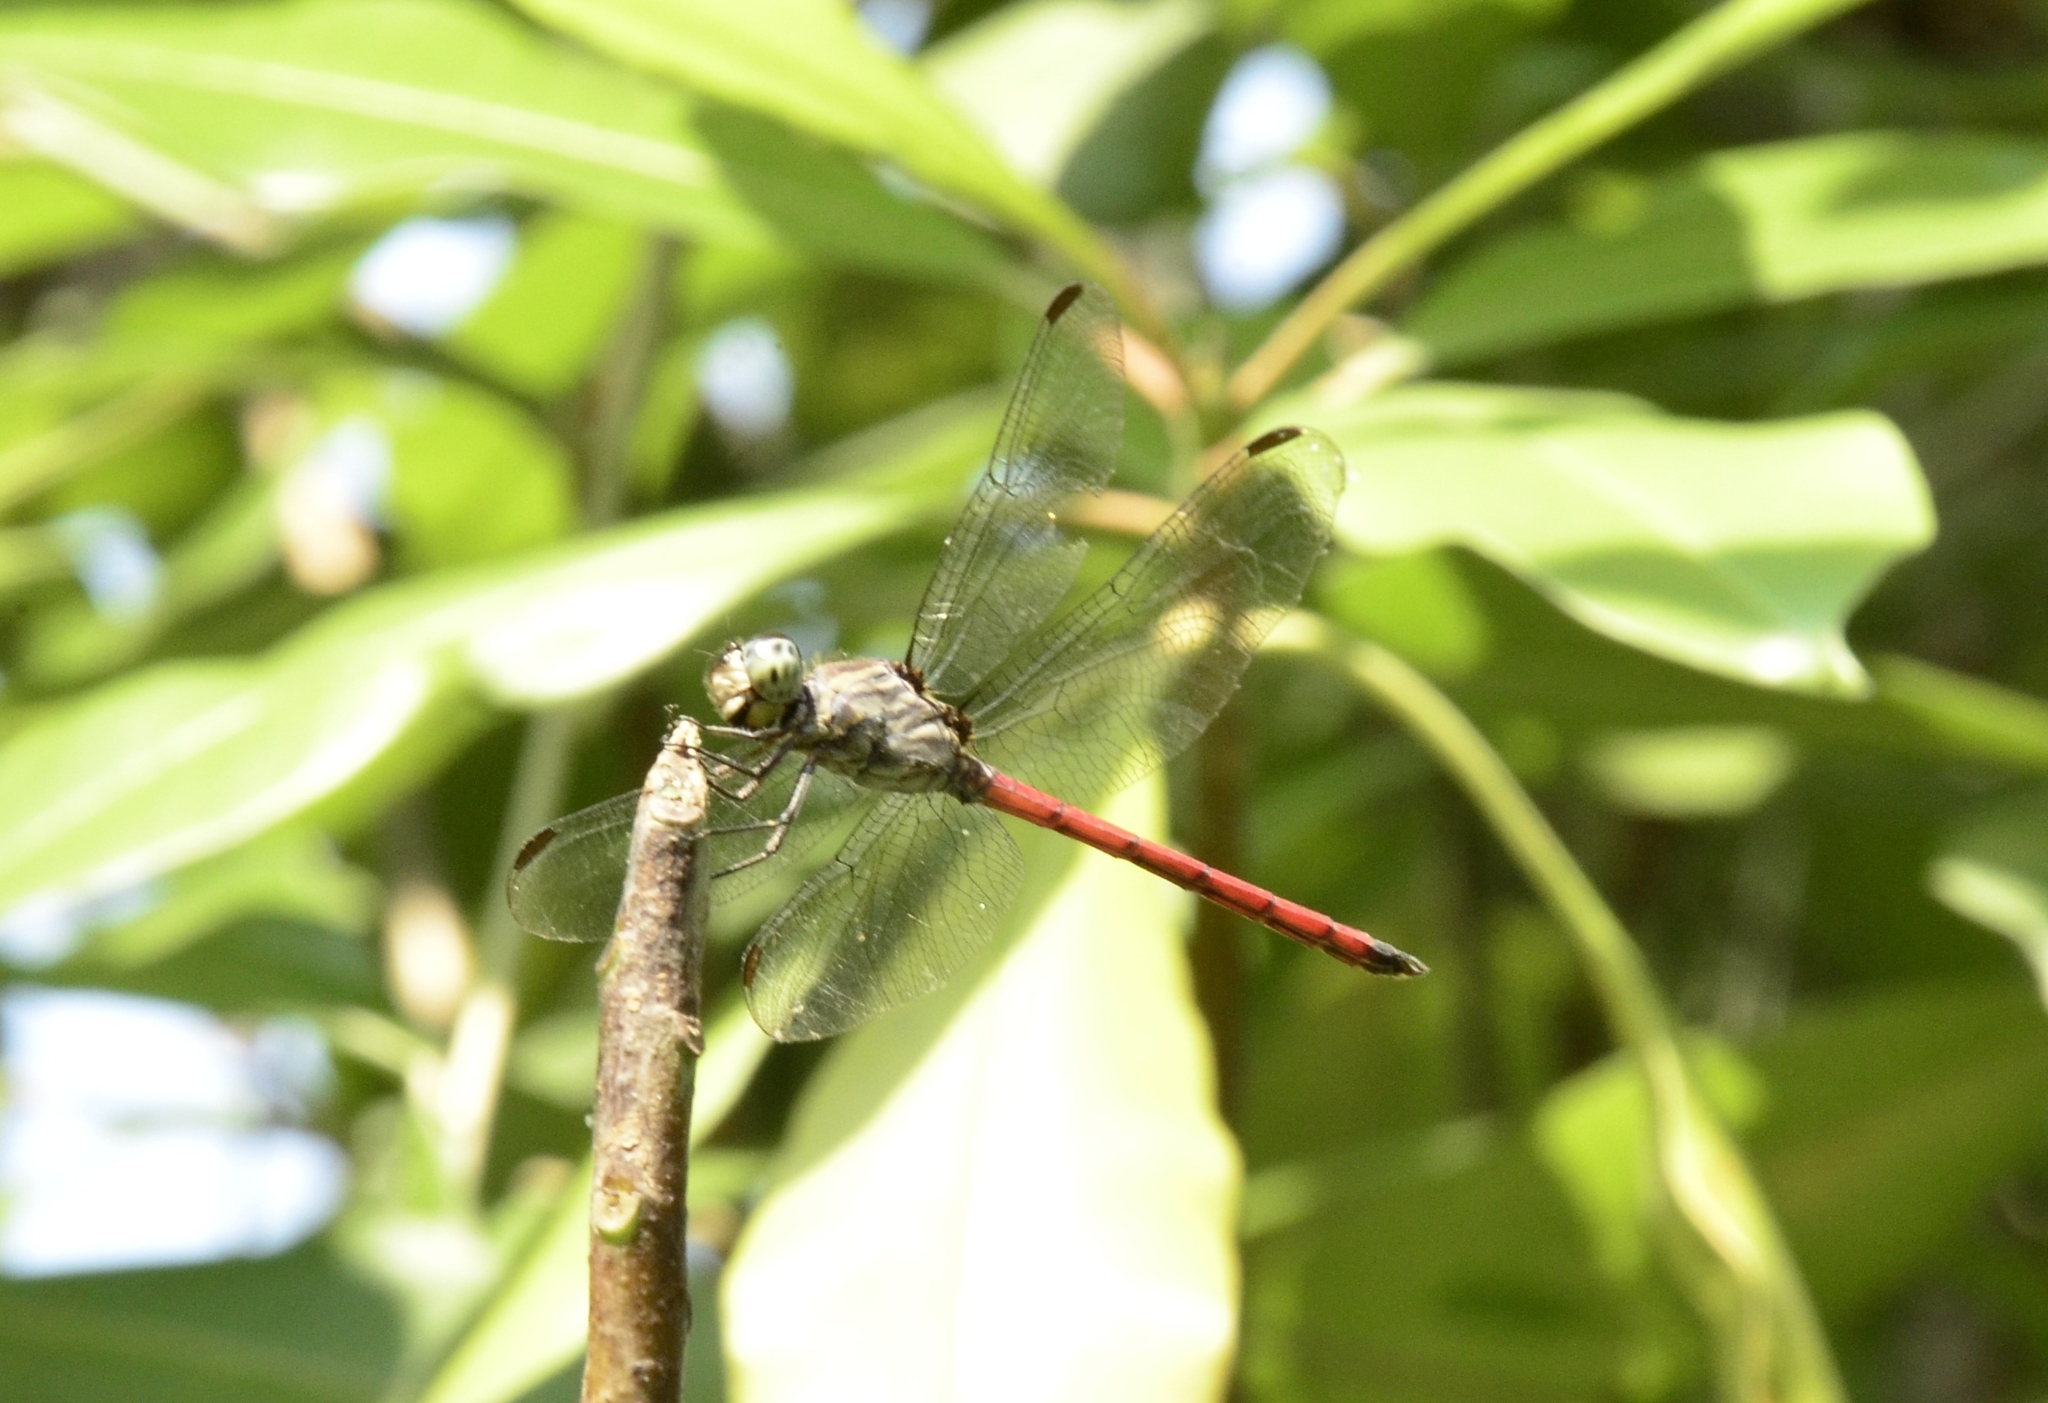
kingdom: Animalia
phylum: Arthropoda
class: Insecta
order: Odonata
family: Libellulidae
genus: Lathrecista
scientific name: Lathrecista asiatica
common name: Scarlet grenadier
